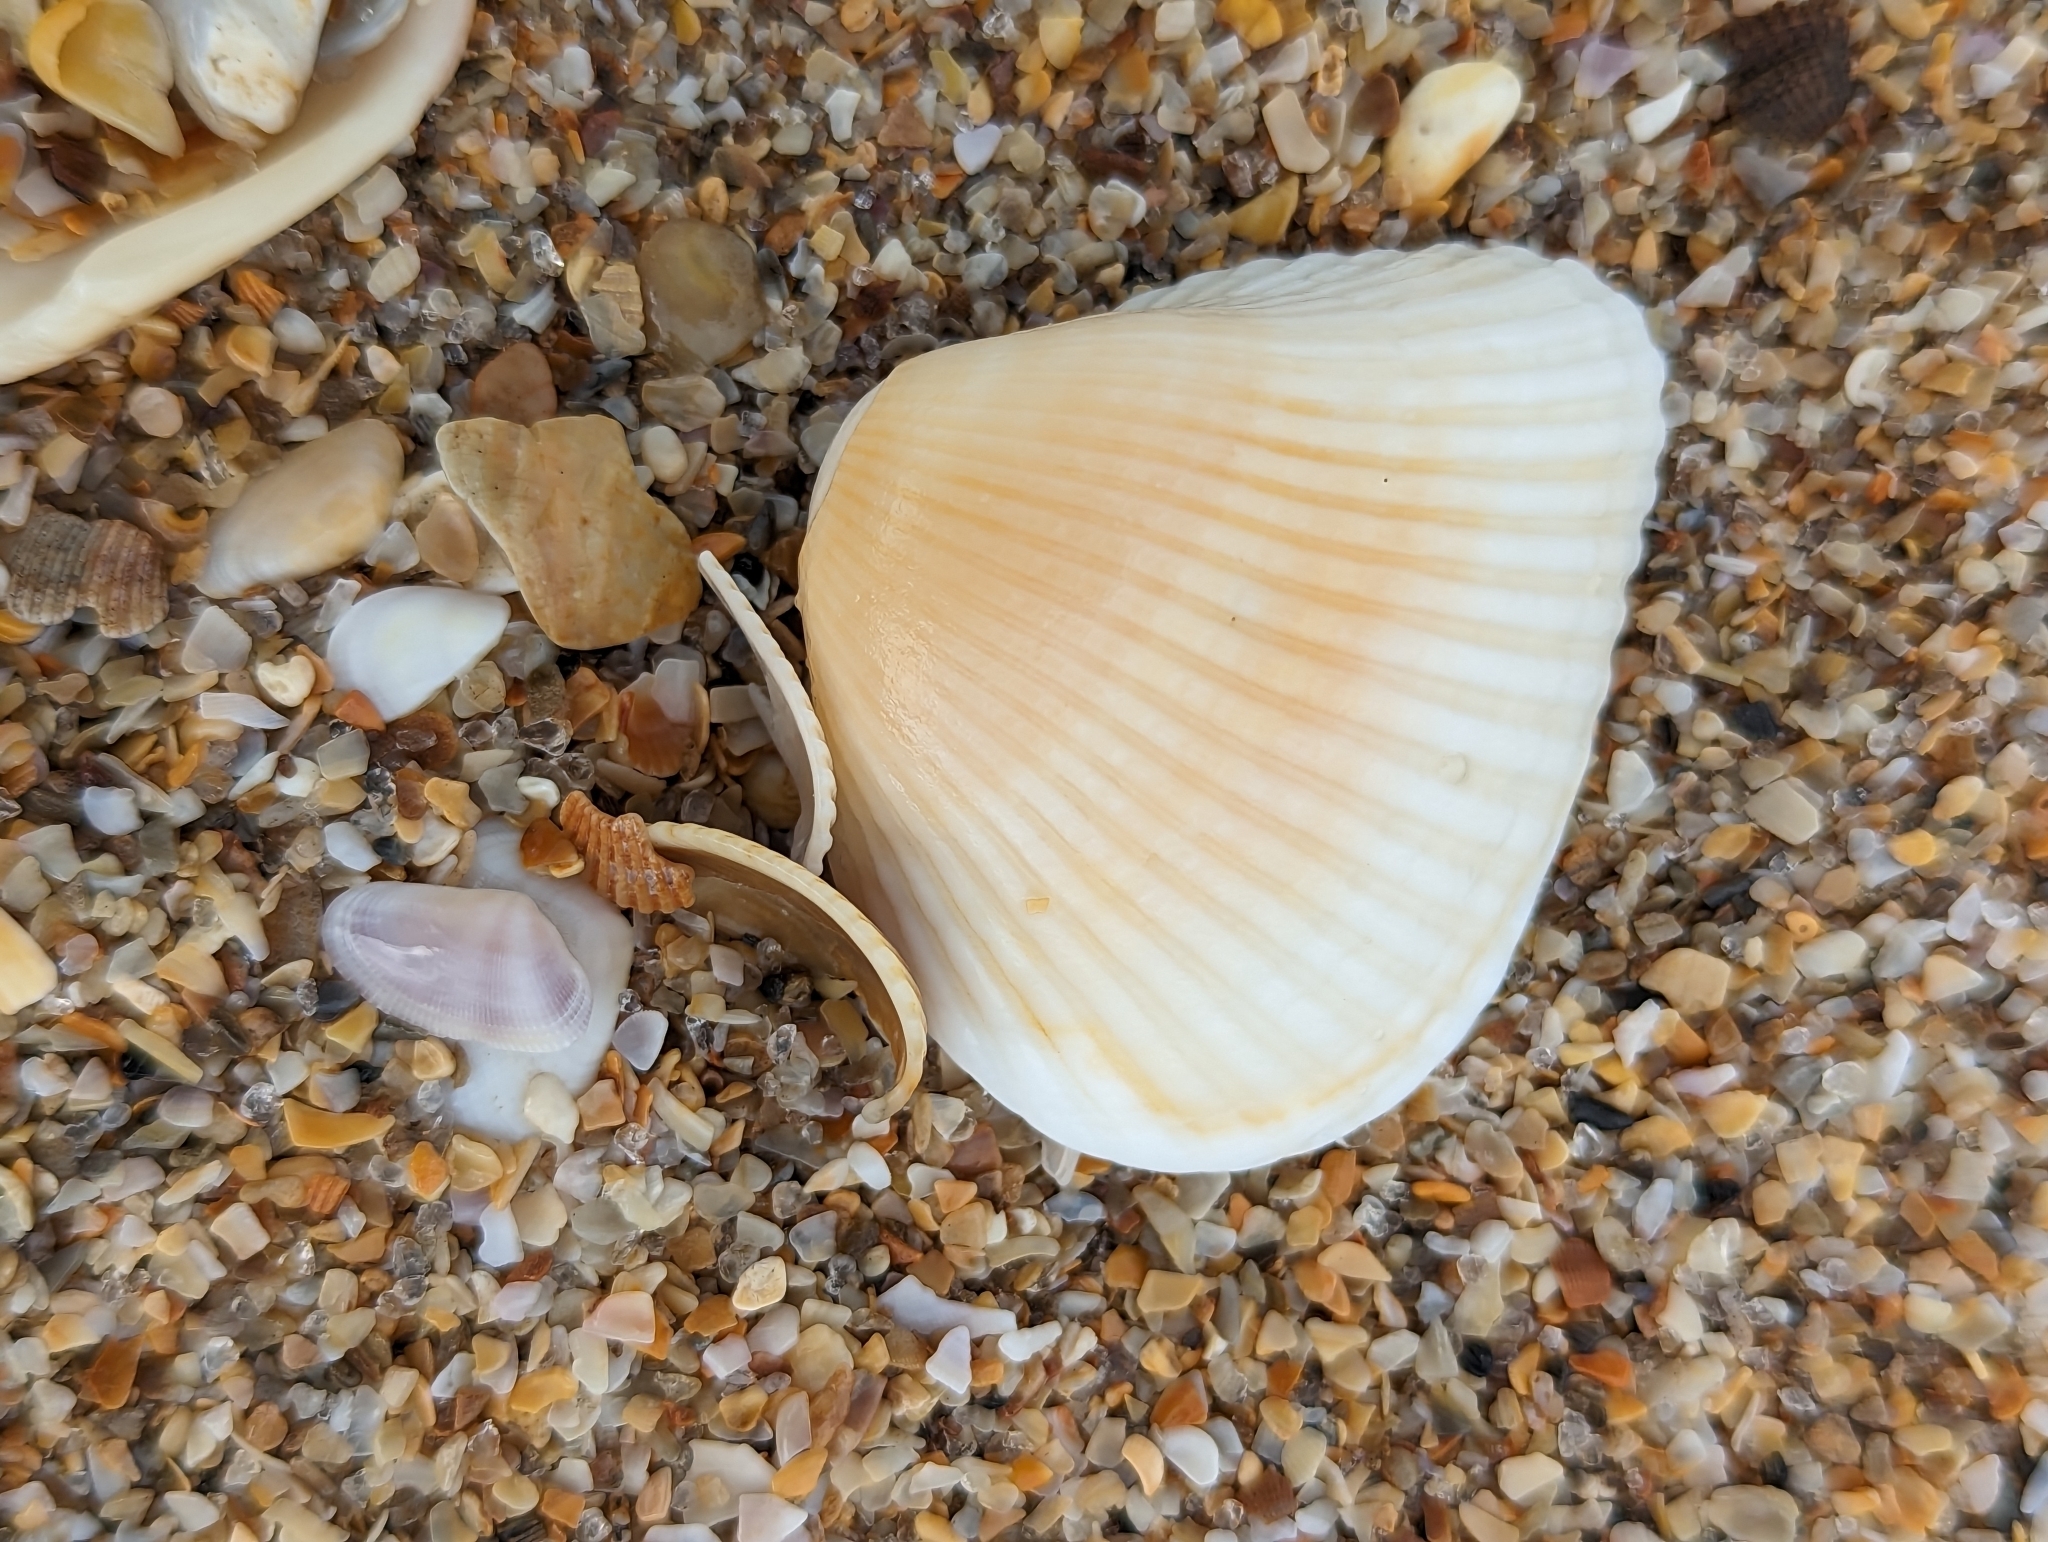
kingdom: Animalia
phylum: Mollusca
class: Bivalvia
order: Arcida
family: Noetiidae
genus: Noetia
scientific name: Noetia ponderosa
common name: Ponderous ark
